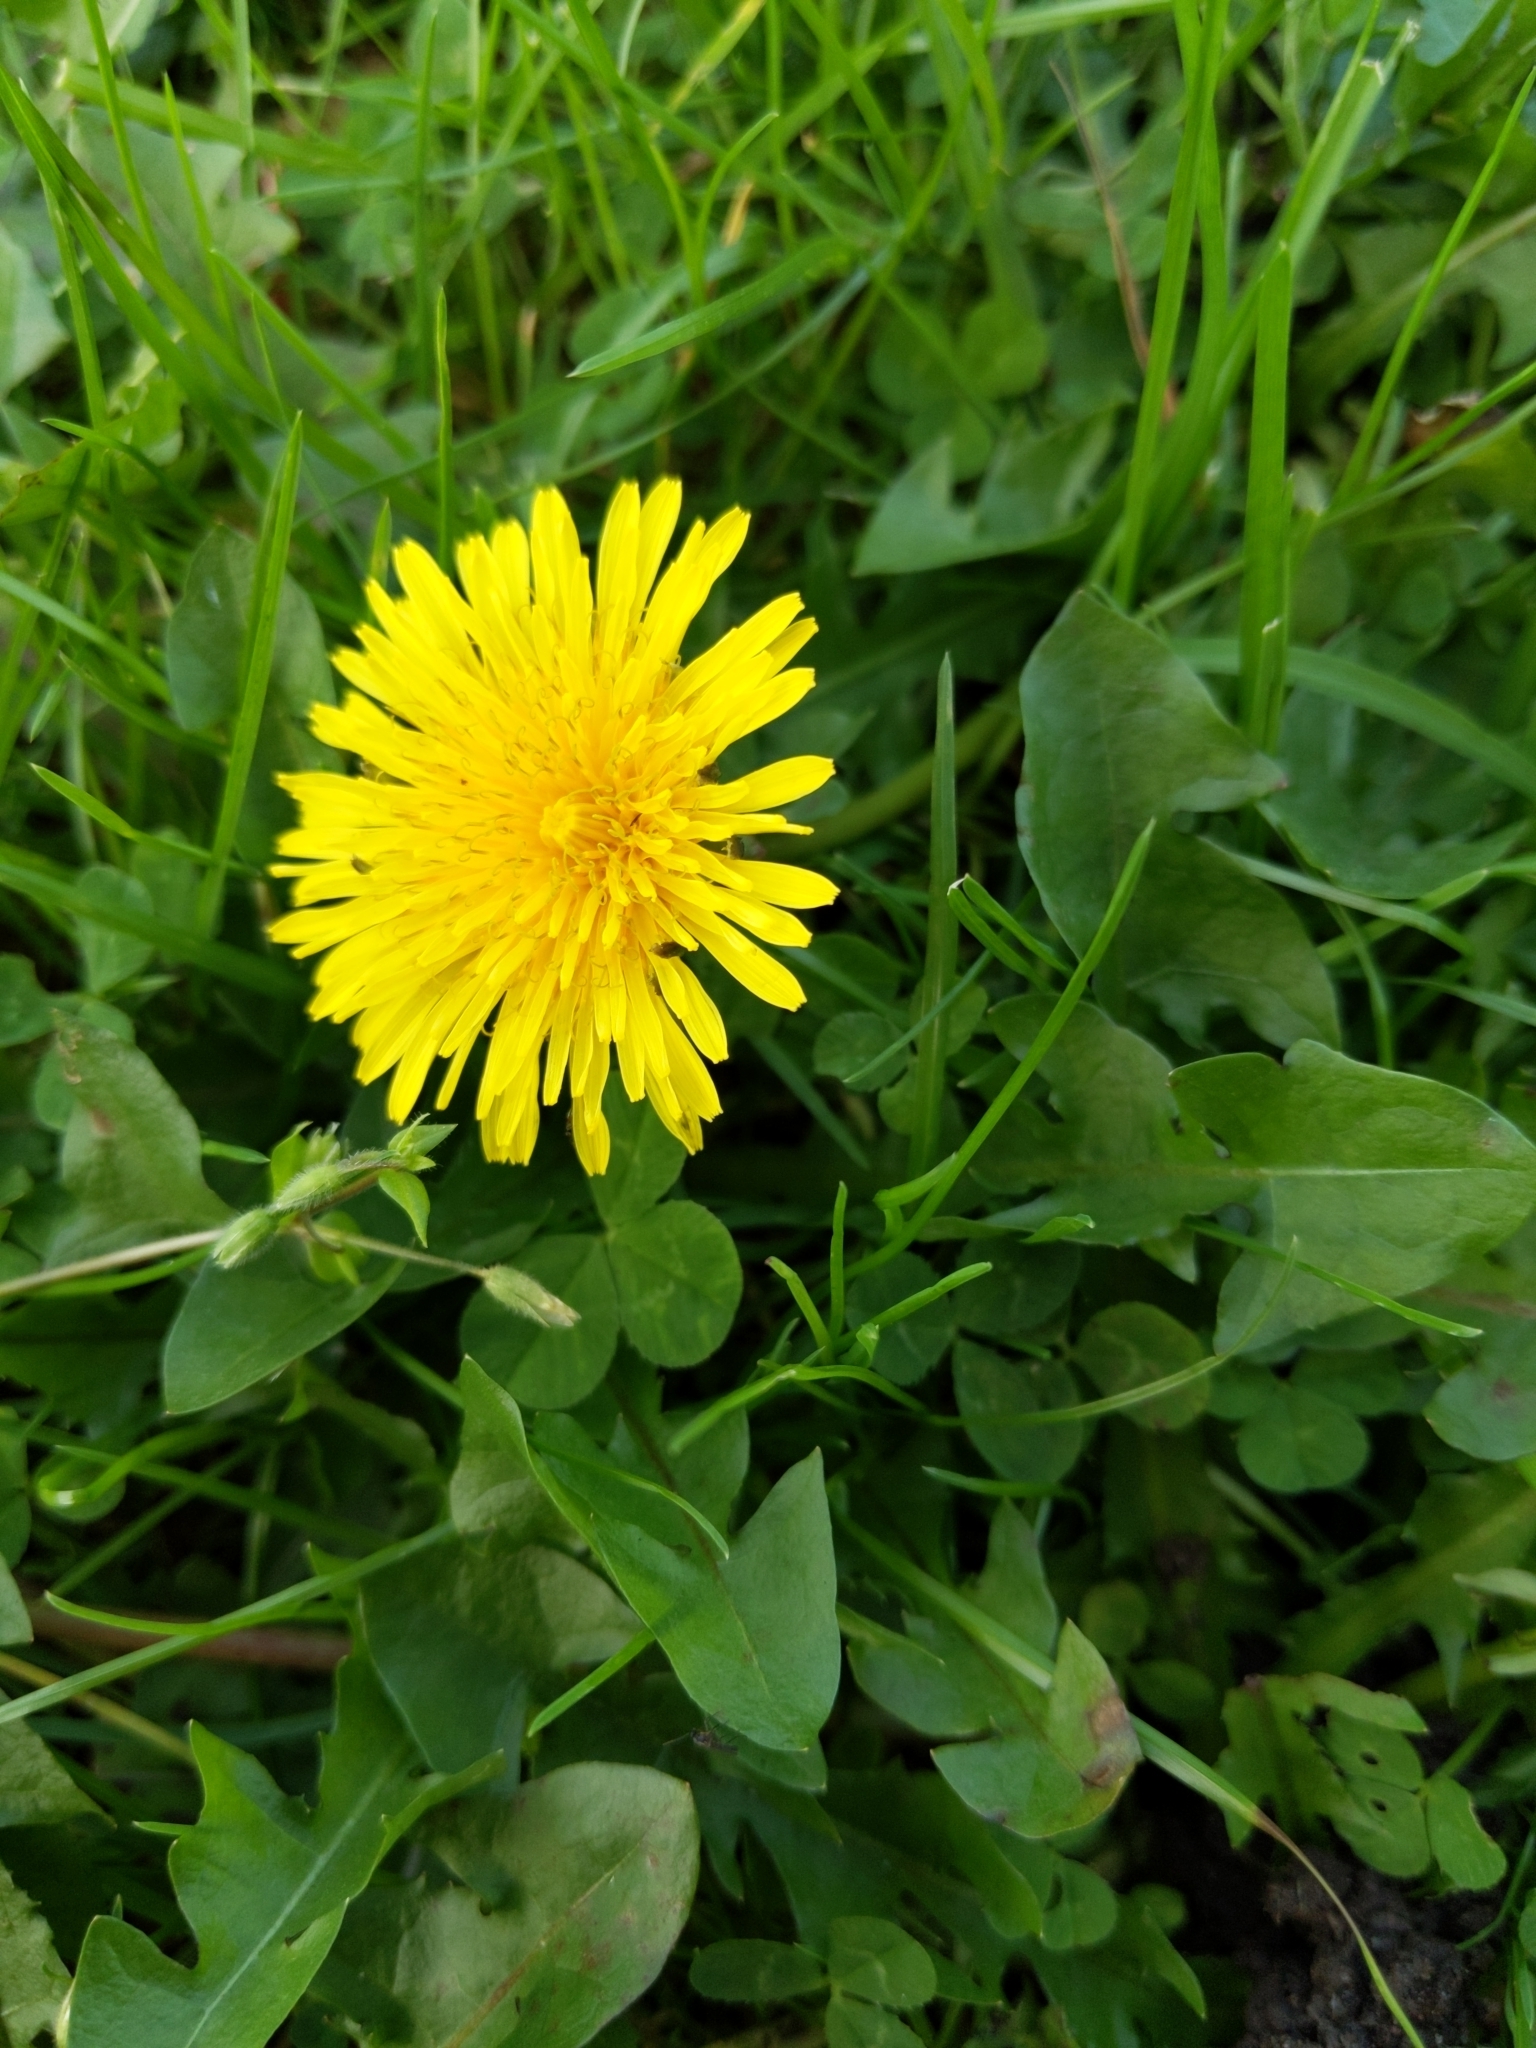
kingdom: Plantae
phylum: Tracheophyta
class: Magnoliopsida
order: Asterales
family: Asteraceae
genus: Taraxacum
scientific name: Taraxacum officinale
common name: Common dandelion
